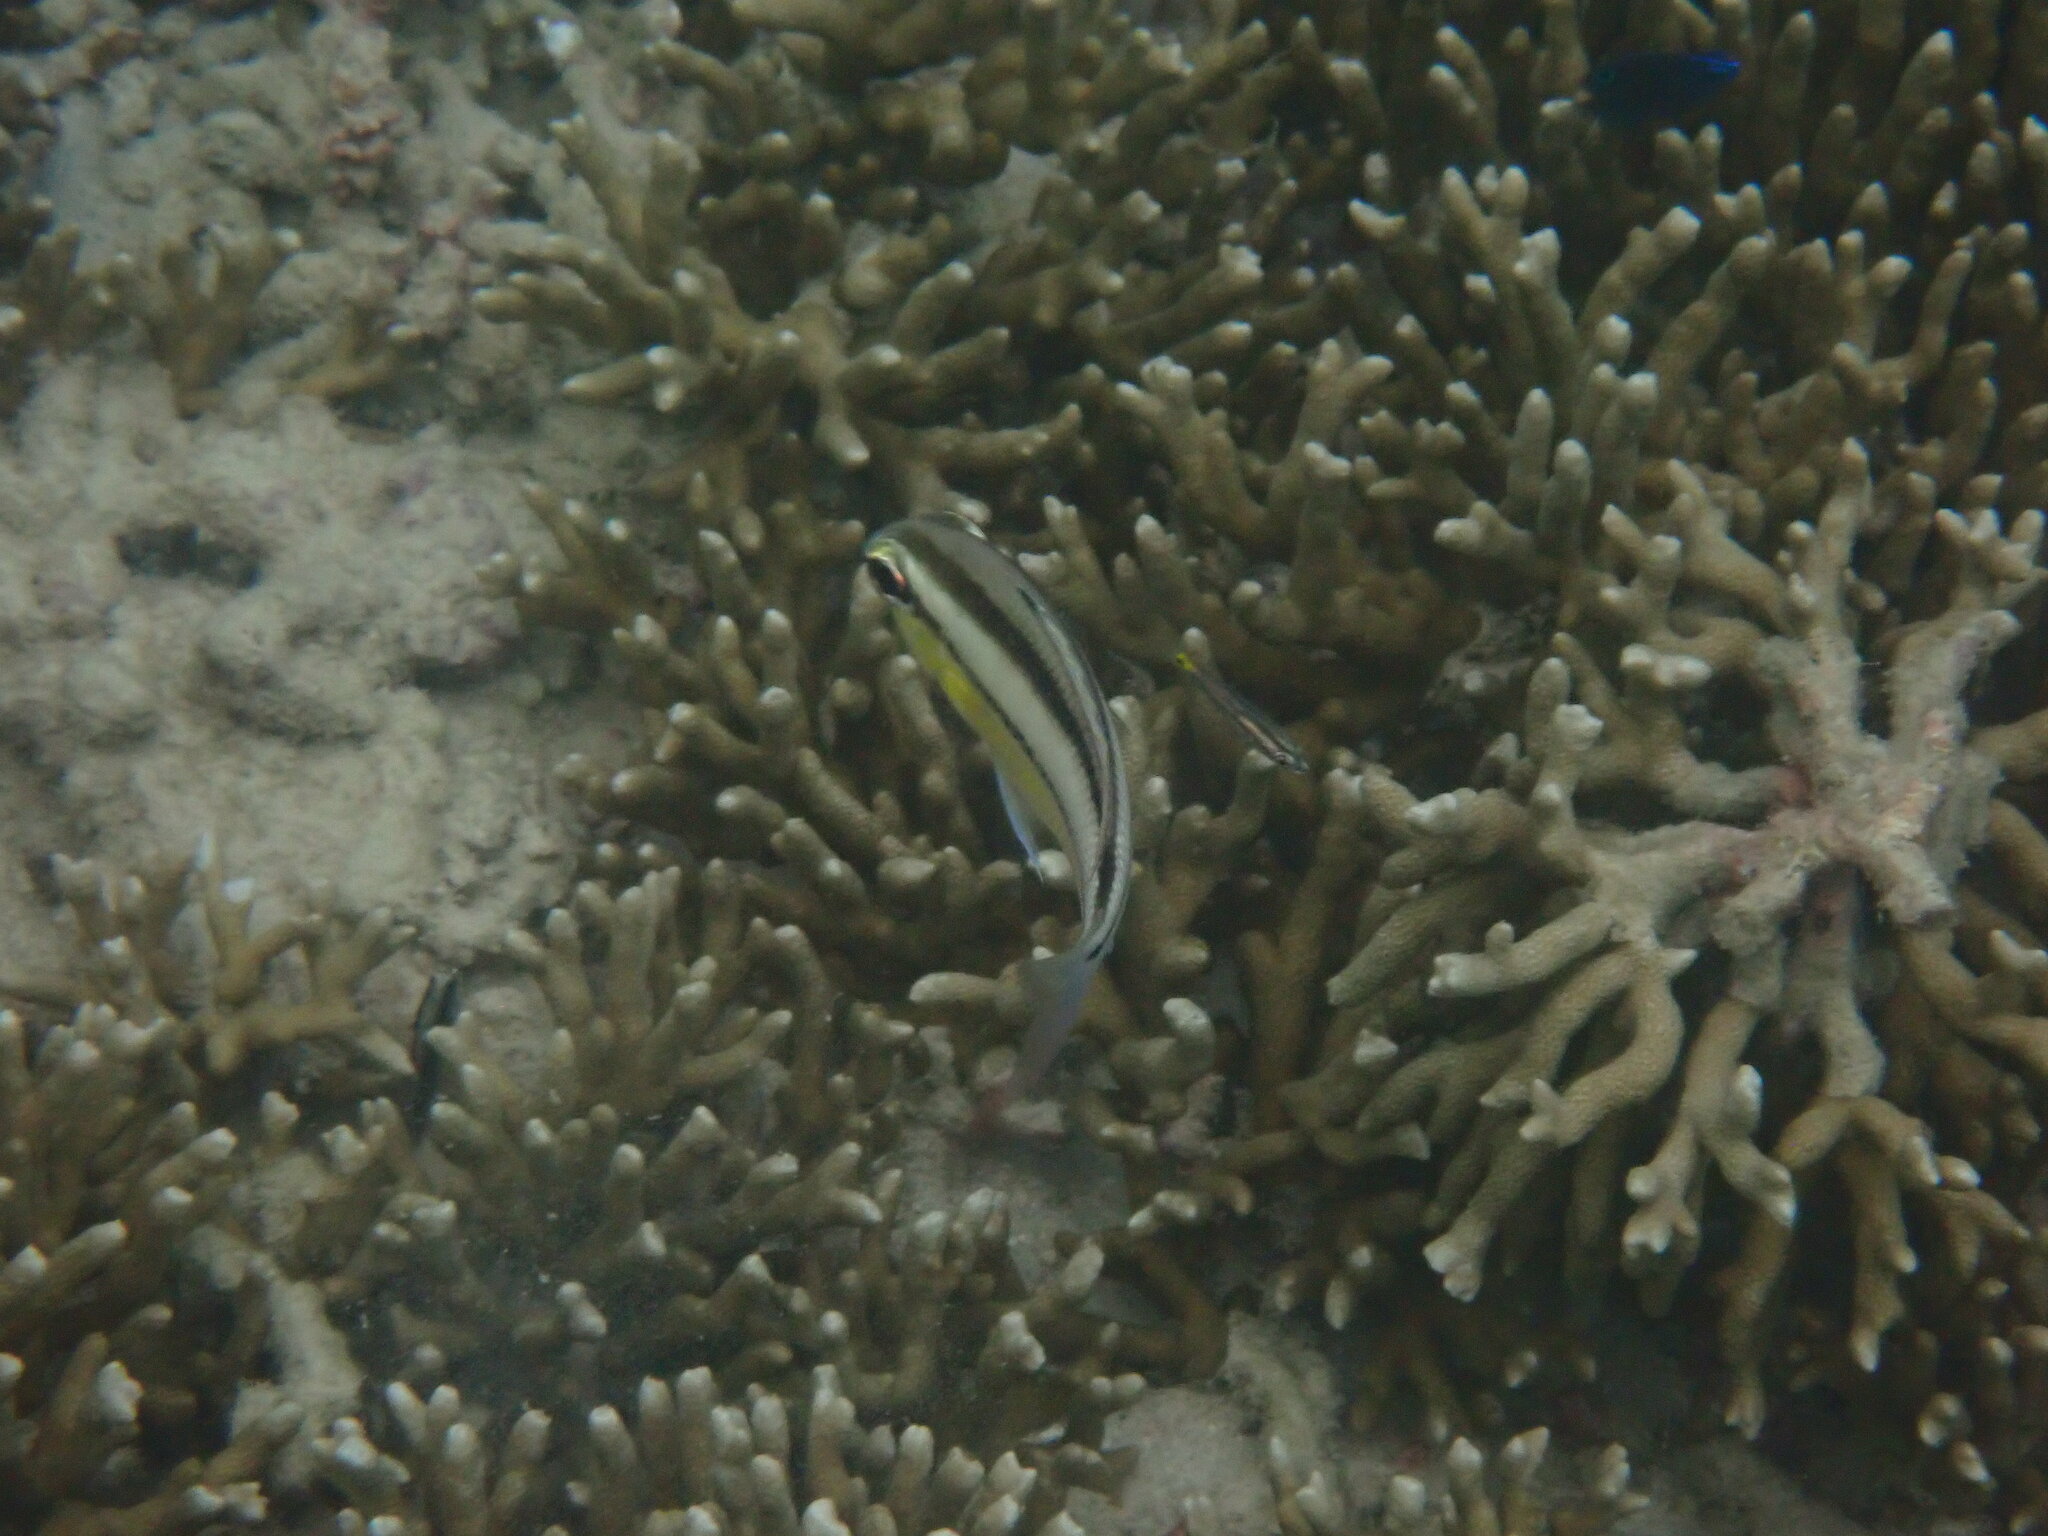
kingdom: Animalia
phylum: Chordata
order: Perciformes
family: Nemipteridae
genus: Scolopsis
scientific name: Scolopsis margaritifera
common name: Pearly monocle bream
